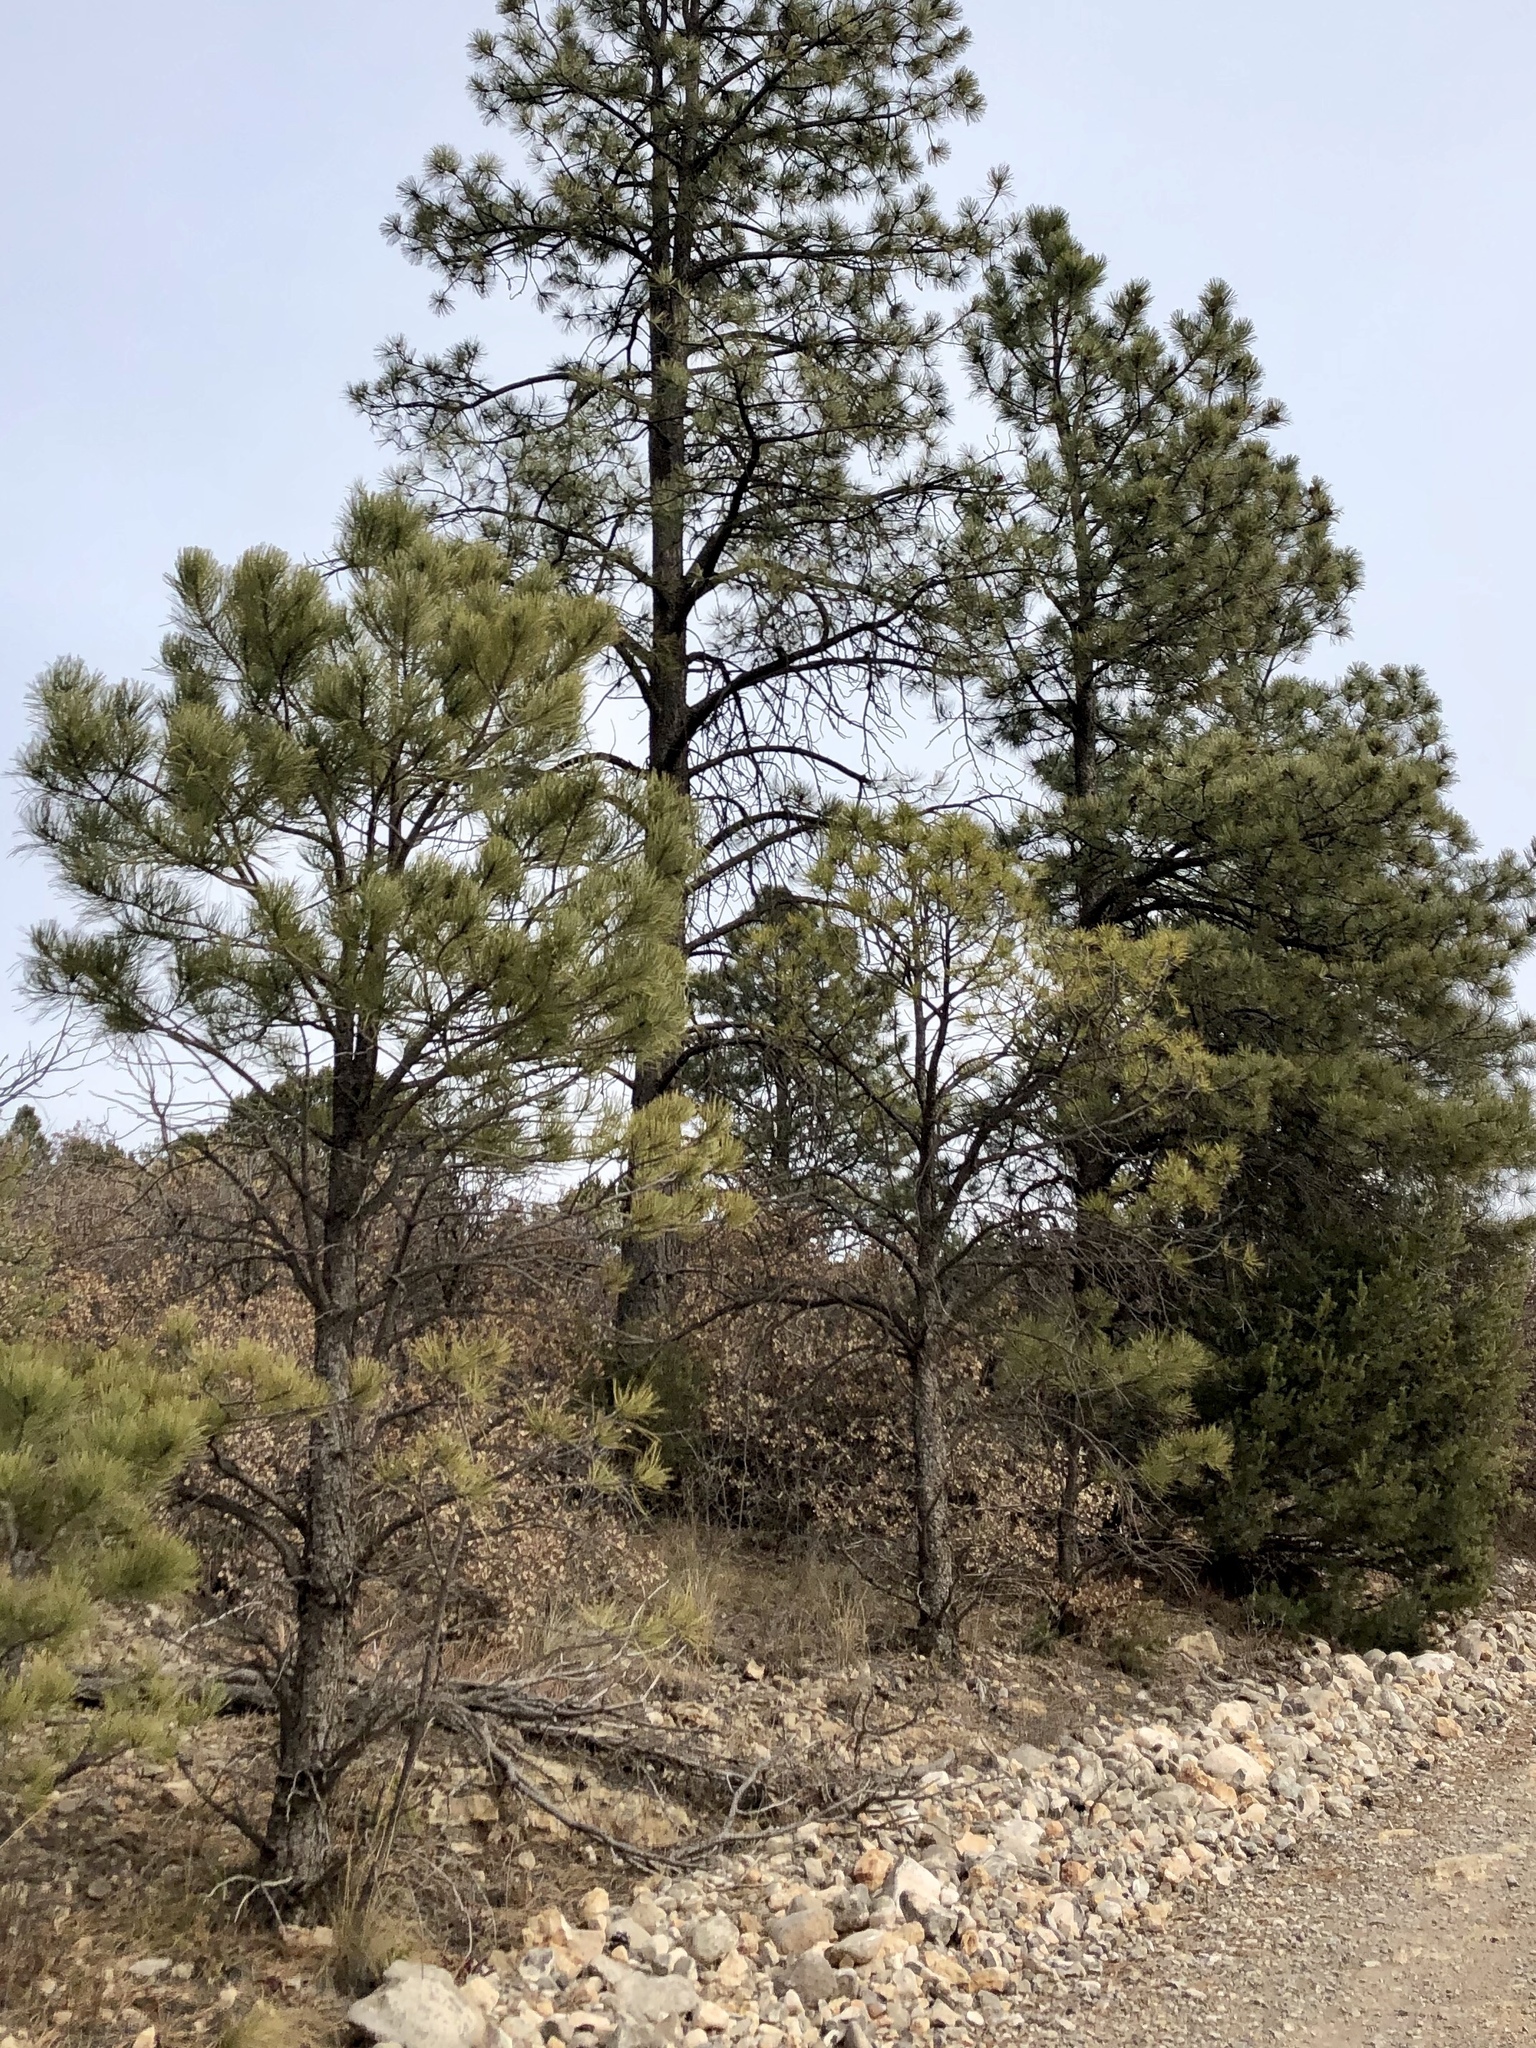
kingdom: Plantae
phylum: Tracheophyta
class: Pinopsida
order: Pinales
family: Pinaceae
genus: Pinus
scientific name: Pinus ponderosa
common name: Western yellow-pine
